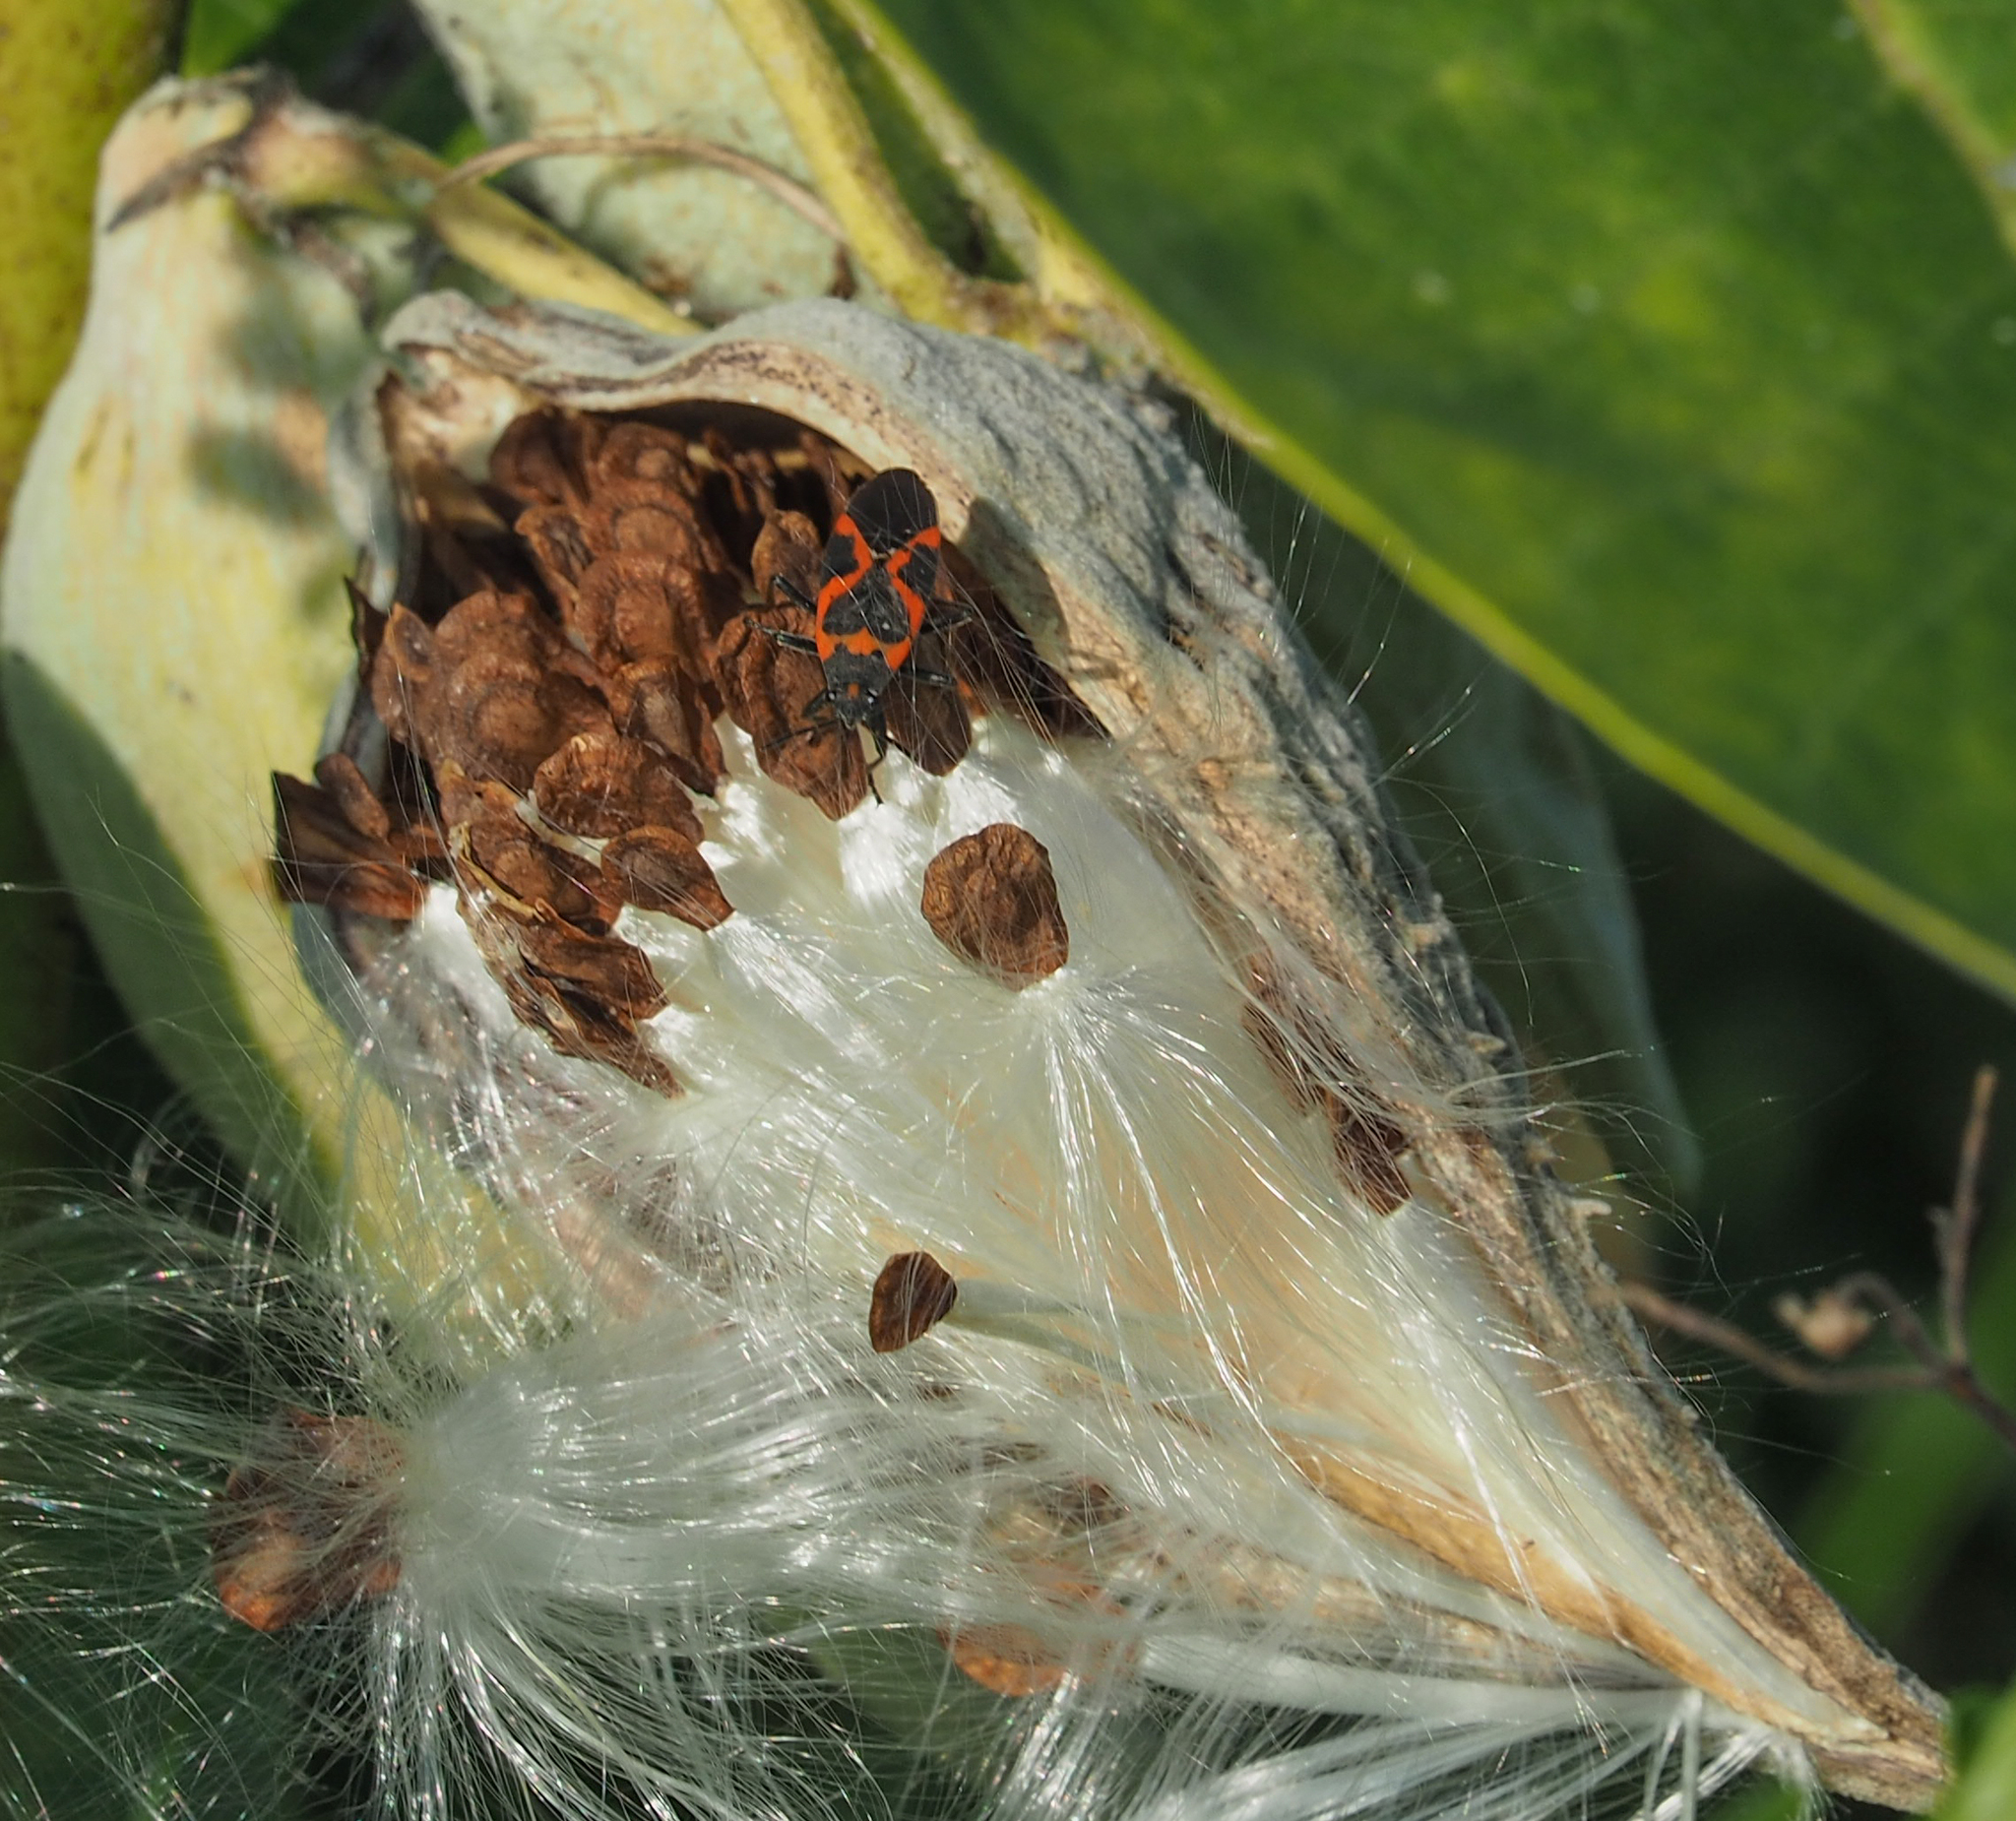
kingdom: Animalia
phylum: Arthropoda
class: Insecta
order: Hemiptera
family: Lygaeidae
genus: Lygaeus
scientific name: Lygaeus kalmii
